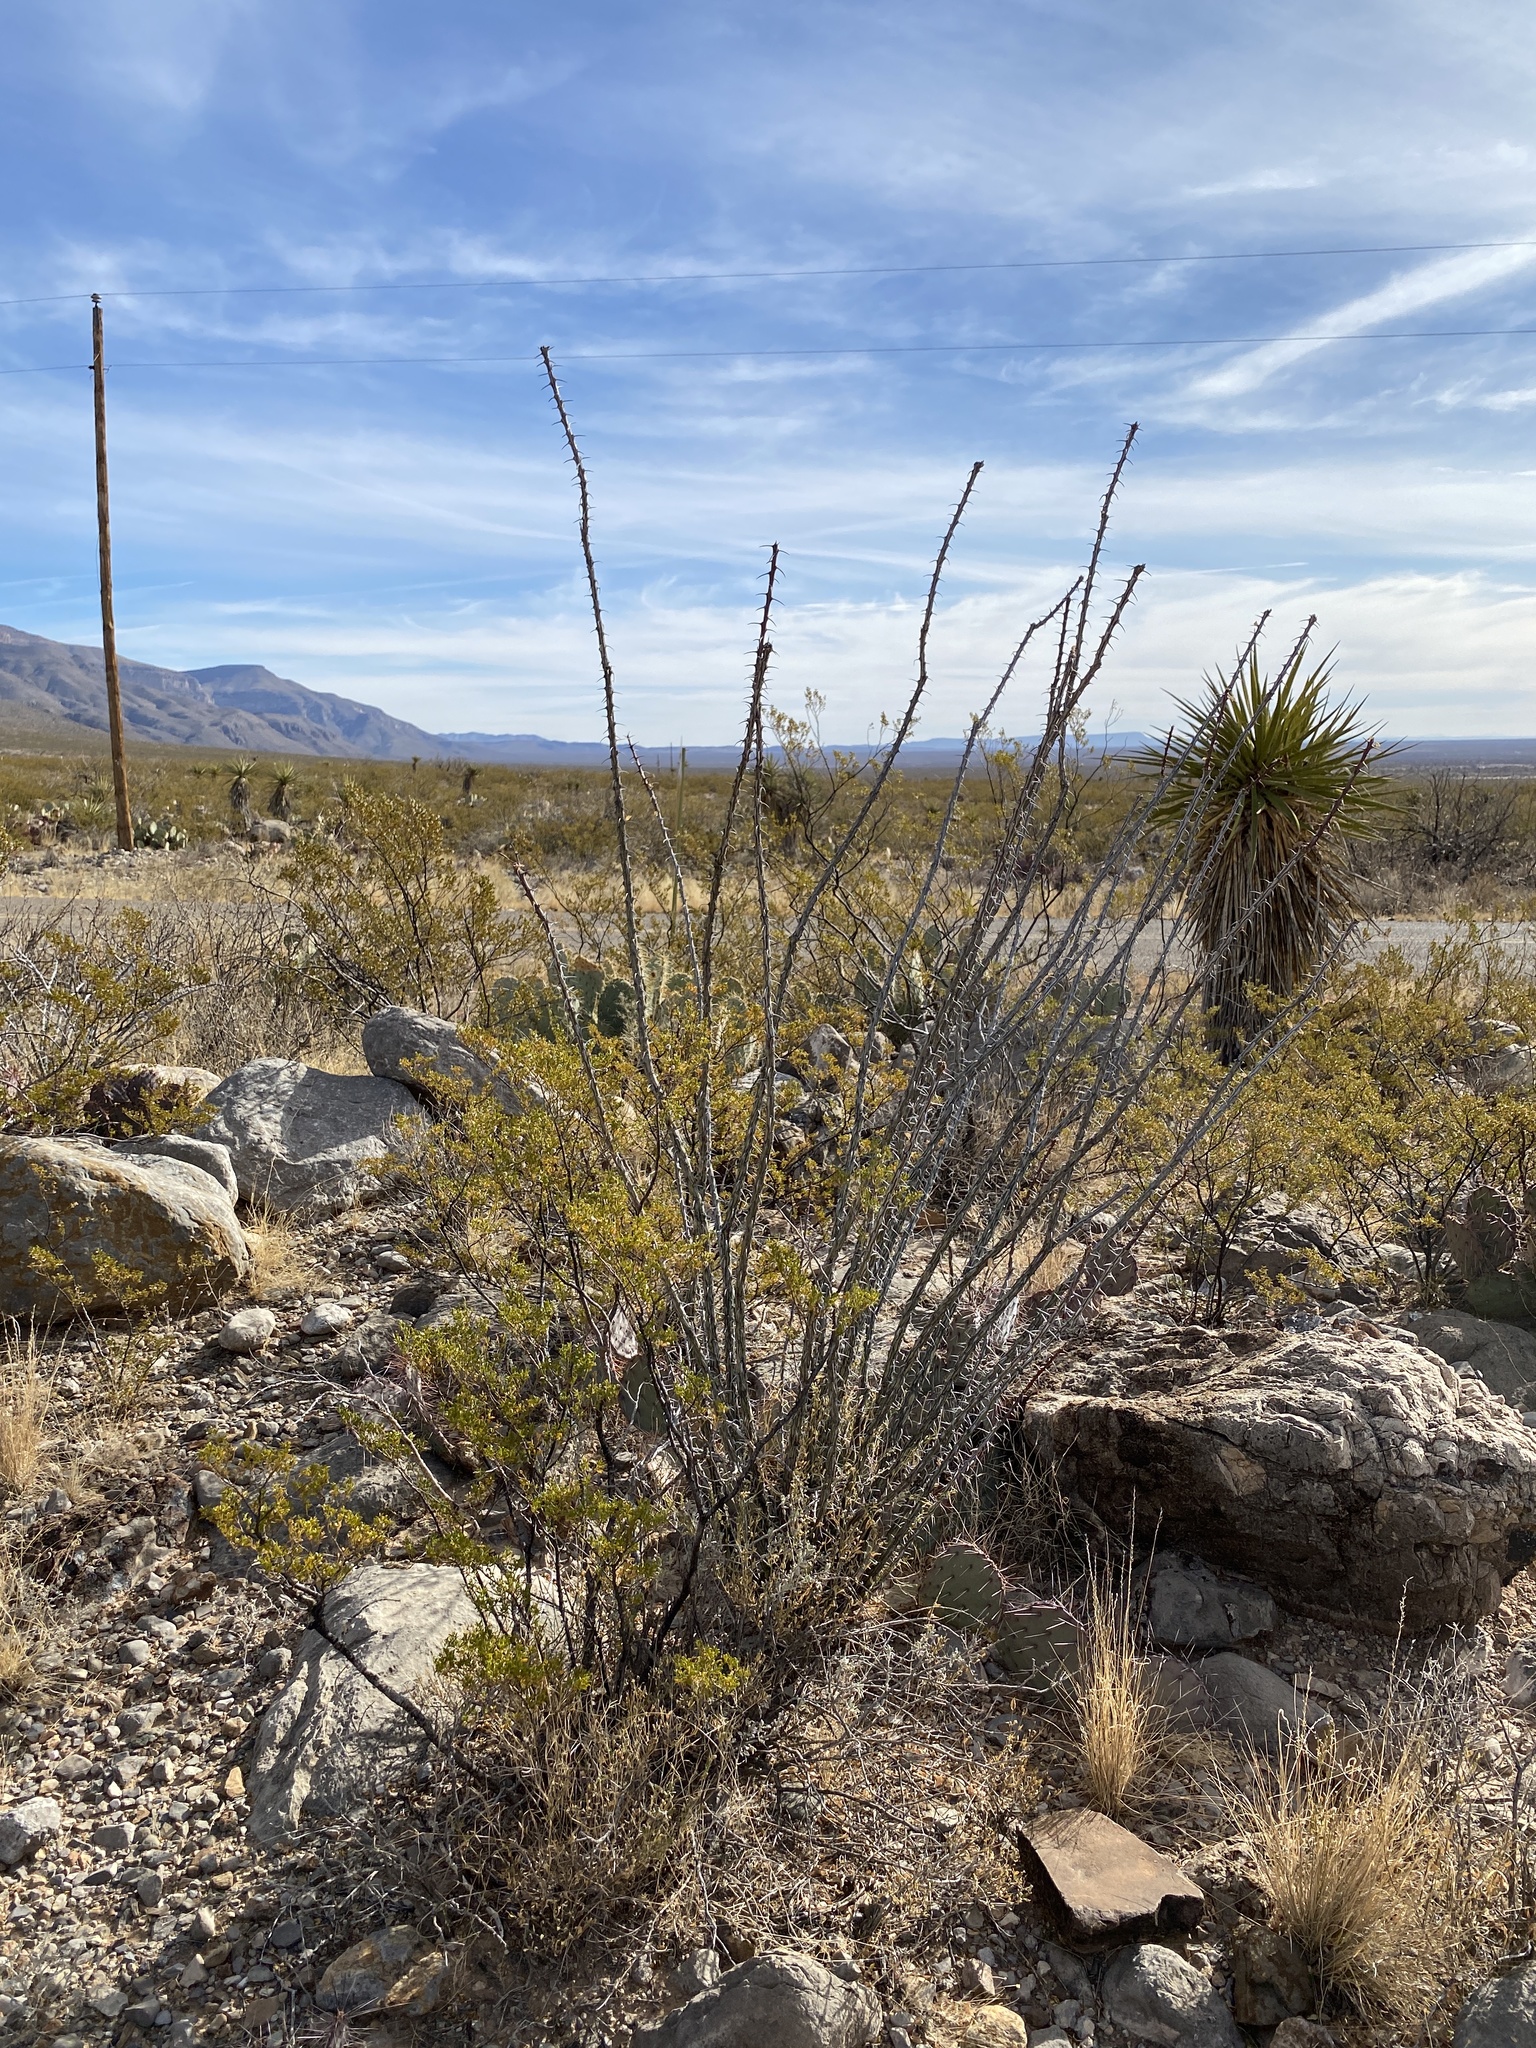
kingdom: Plantae
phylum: Tracheophyta
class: Magnoliopsida
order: Ericales
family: Fouquieriaceae
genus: Fouquieria
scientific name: Fouquieria splendens
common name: Vine-cactus
